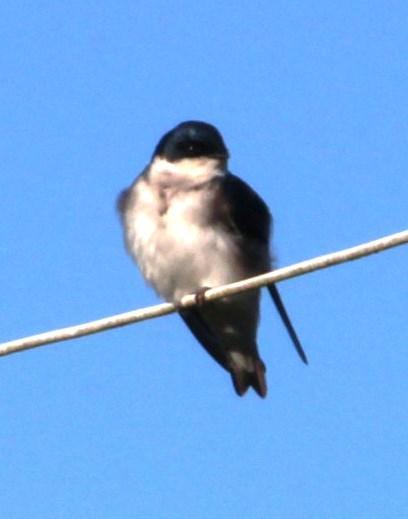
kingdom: Animalia
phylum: Chordata
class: Aves
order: Passeriformes
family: Hirundinidae
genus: Tachycineta
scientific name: Tachycineta leucopyga
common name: Chilean swallow
